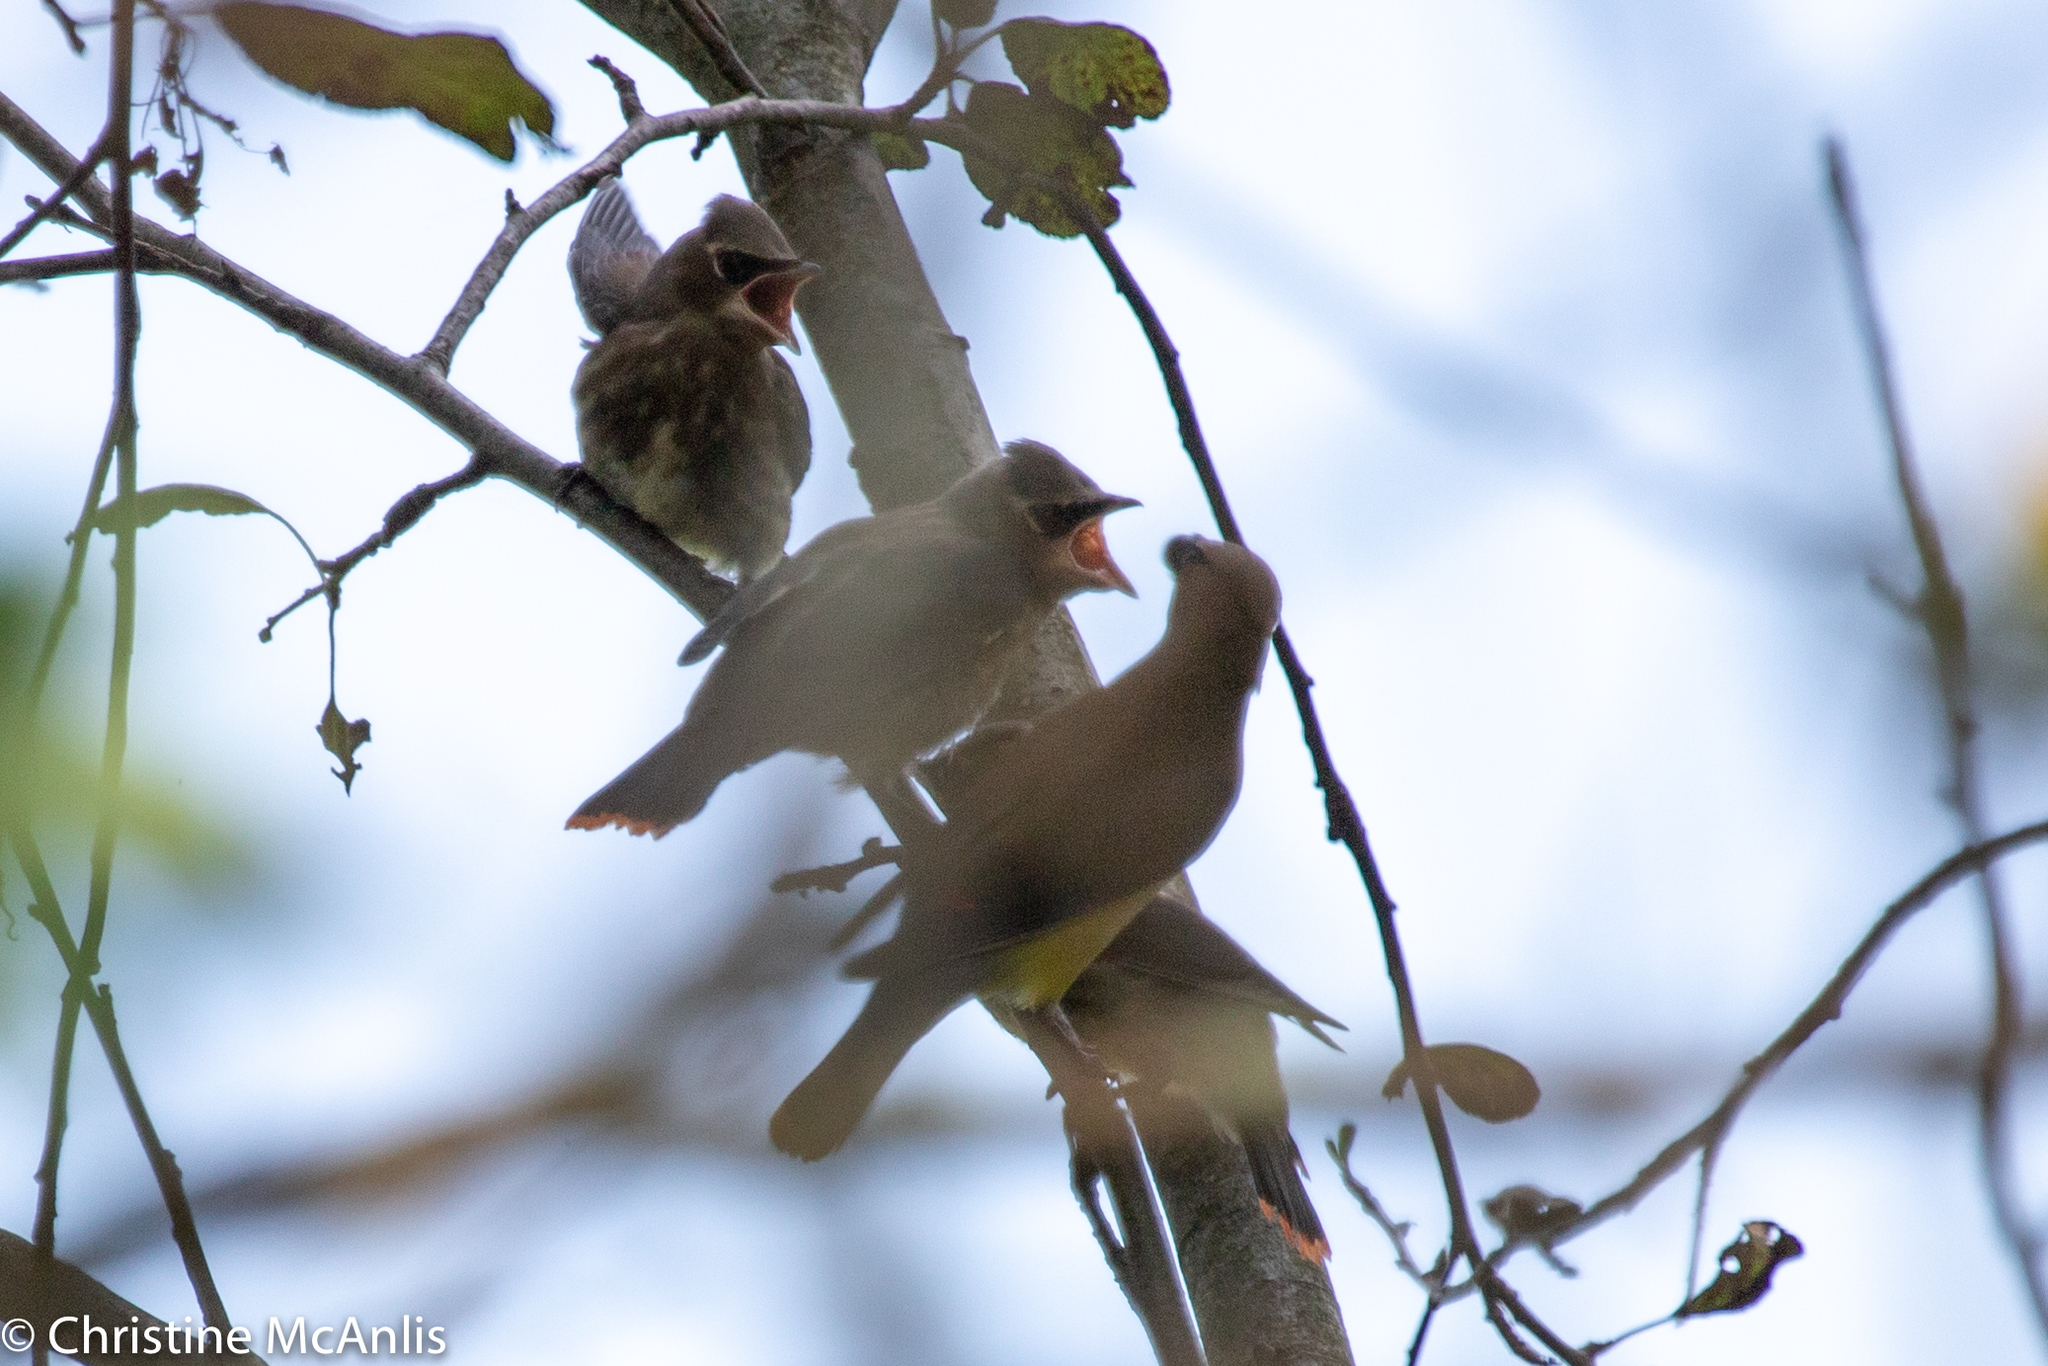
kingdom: Animalia
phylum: Chordata
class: Aves
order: Passeriformes
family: Bombycillidae
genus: Bombycilla
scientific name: Bombycilla cedrorum
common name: Cedar waxwing
